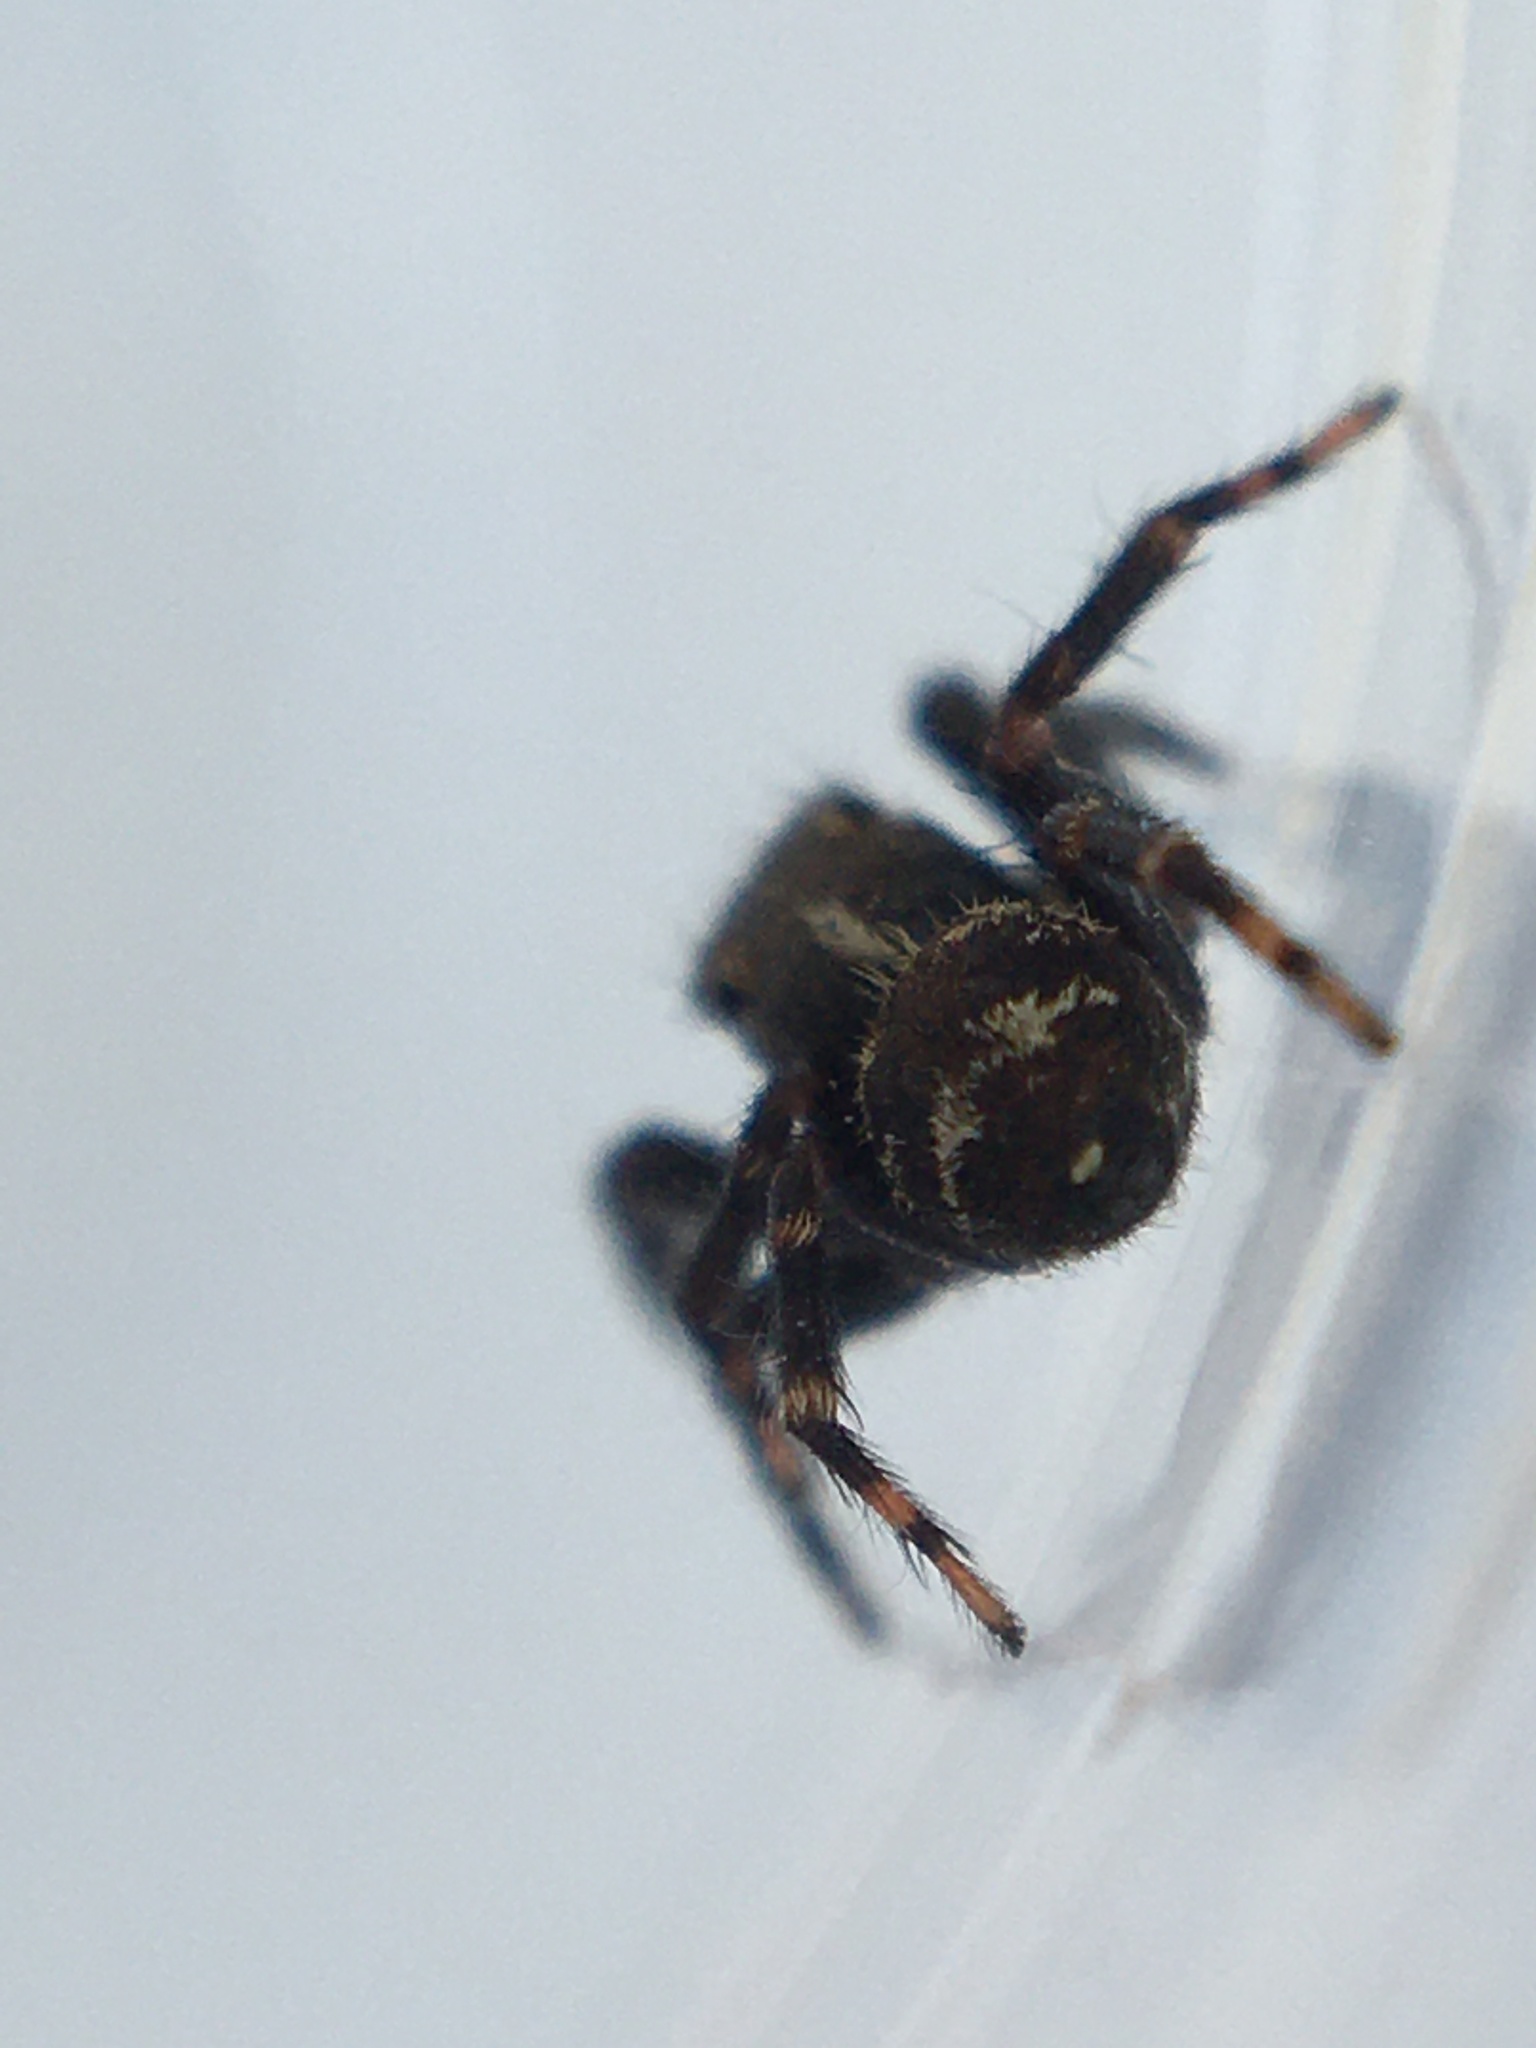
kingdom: Animalia
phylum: Arthropoda
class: Arachnida
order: Araneae
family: Salticidae
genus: Pseudeuophrys
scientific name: Pseudeuophrys erratica
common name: Jumping spider
